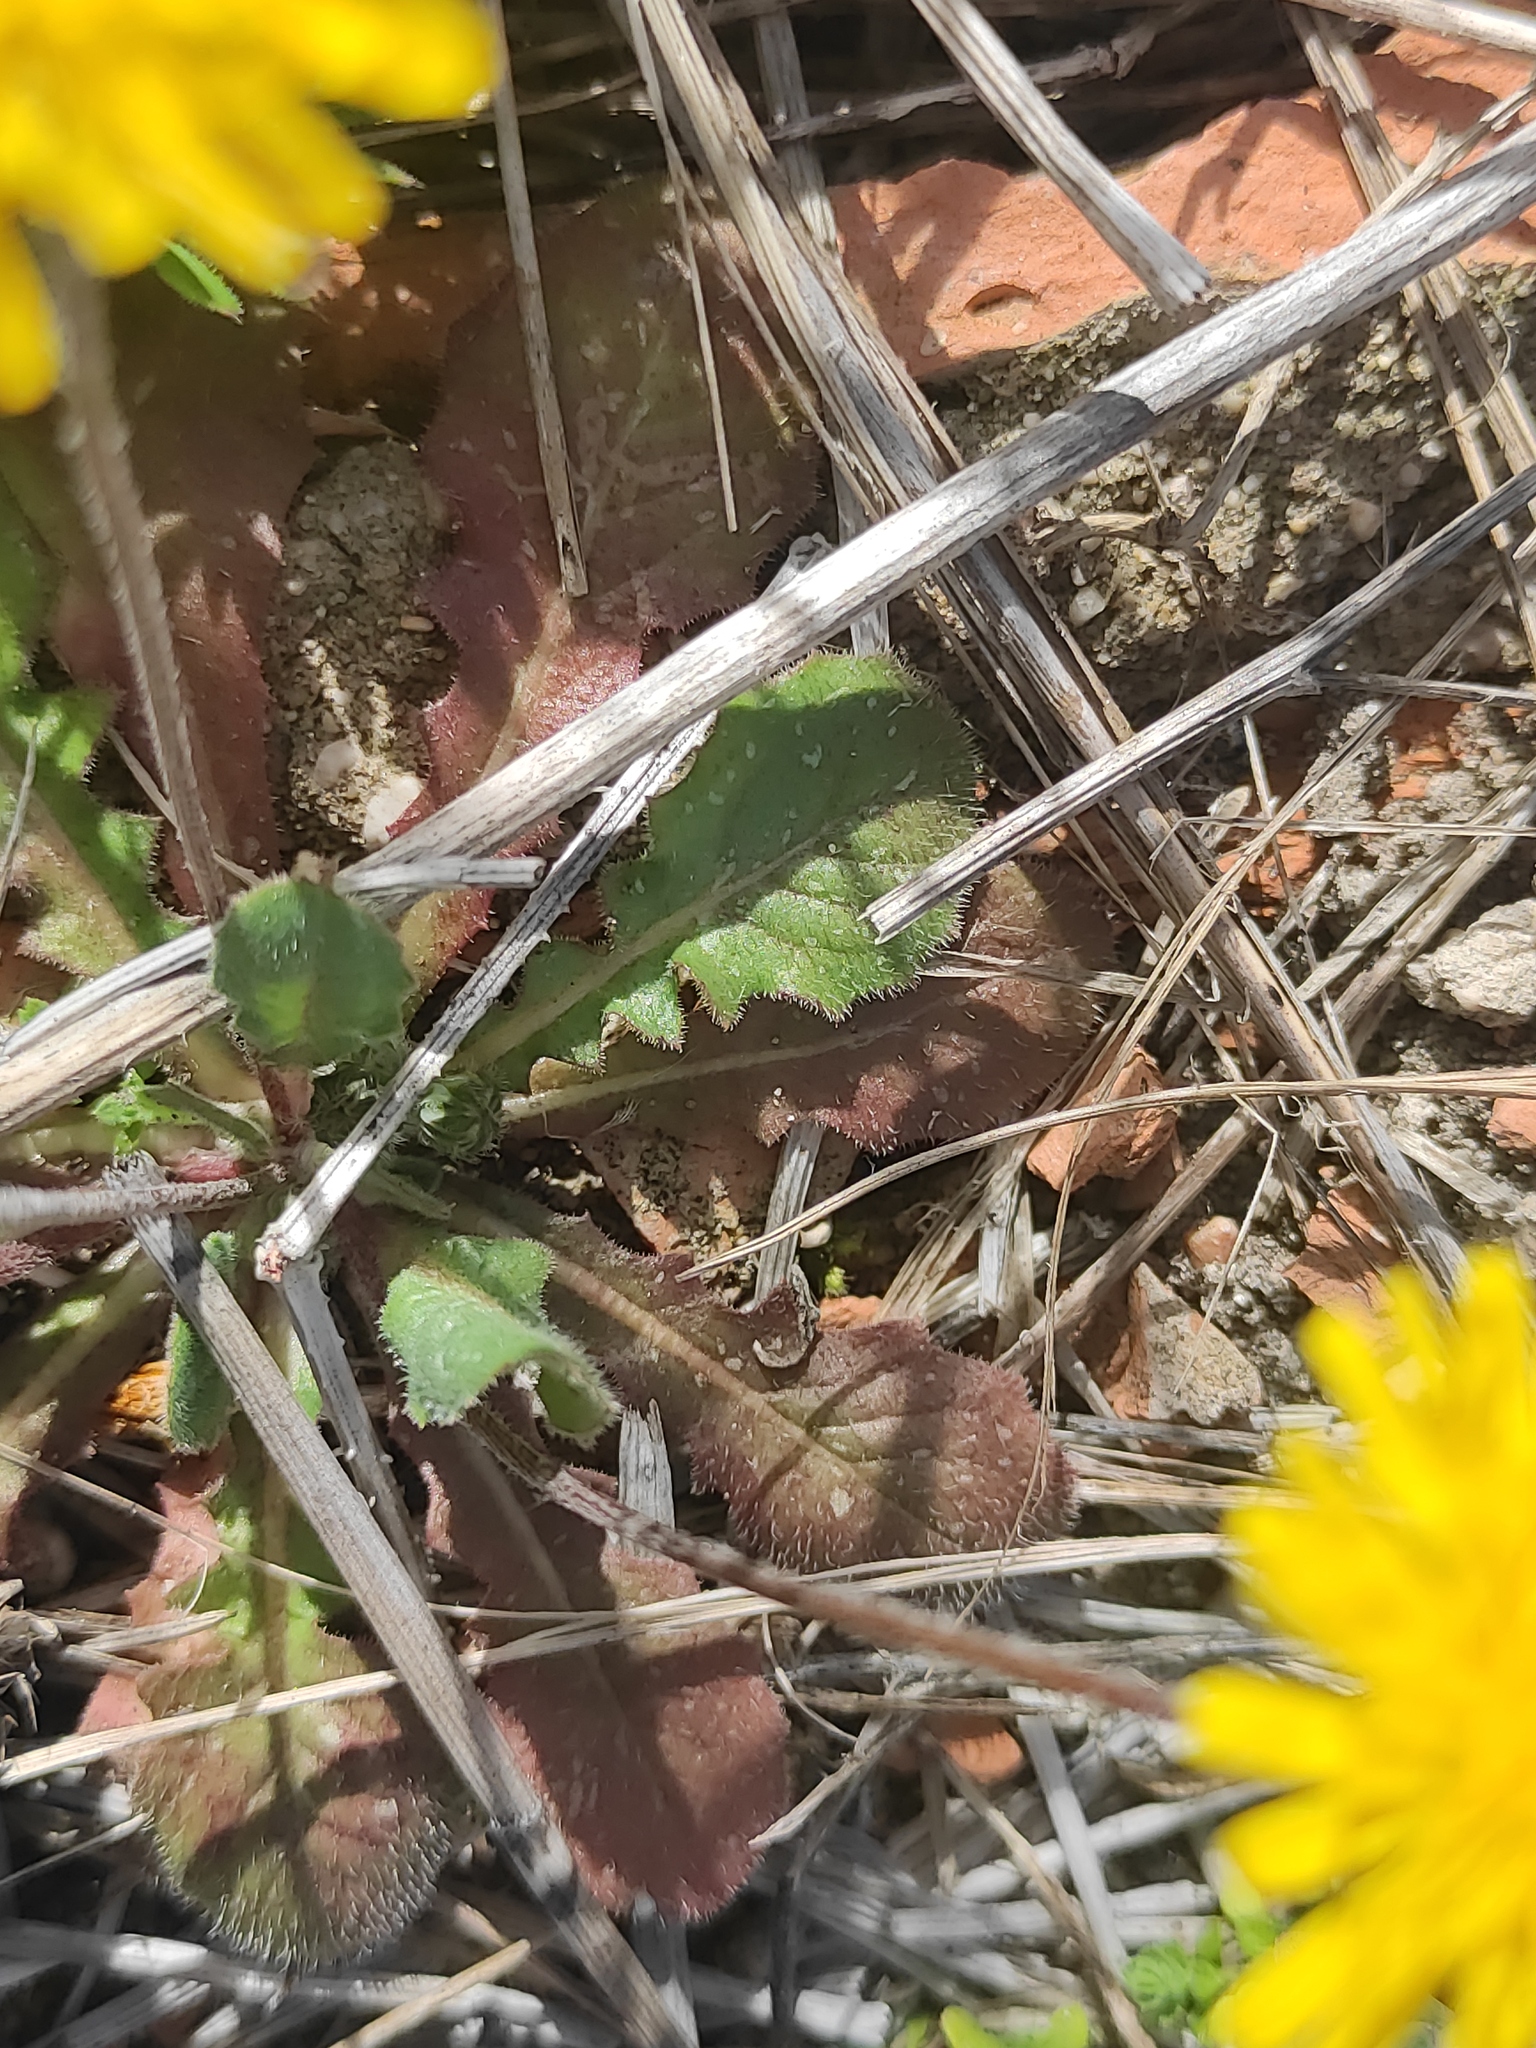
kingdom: Plantae
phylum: Tracheophyta
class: Magnoliopsida
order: Asterales
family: Asteraceae
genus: Crepis
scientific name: Crepis sancta
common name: Hawk's-beard
